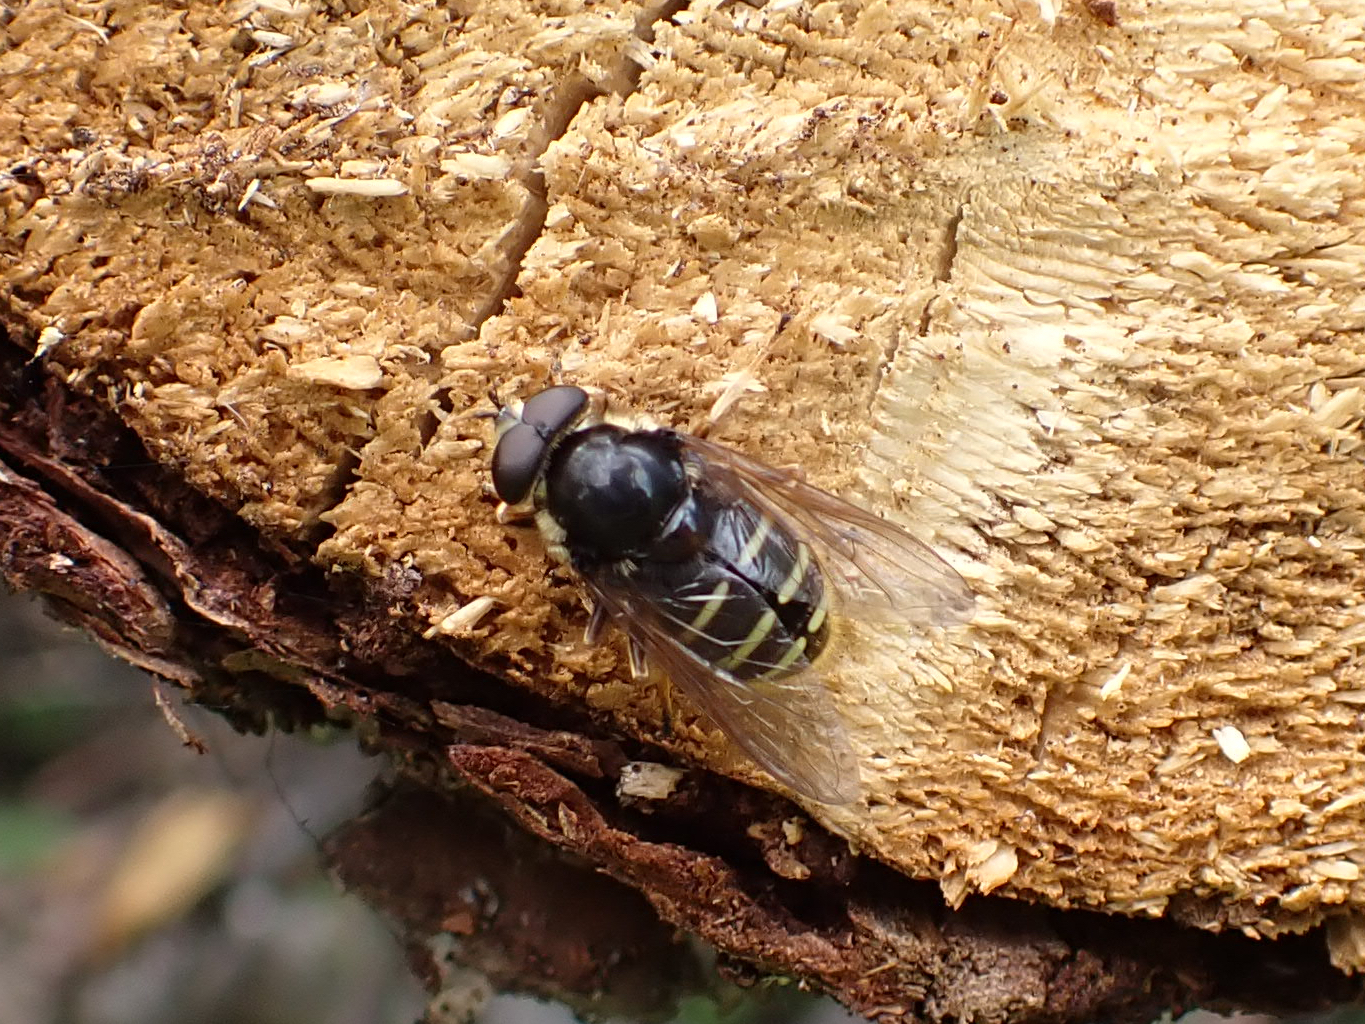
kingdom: Animalia
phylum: Arthropoda
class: Insecta
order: Diptera
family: Syrphidae
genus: Sericomyia
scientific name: Sericomyia chalcopyga
